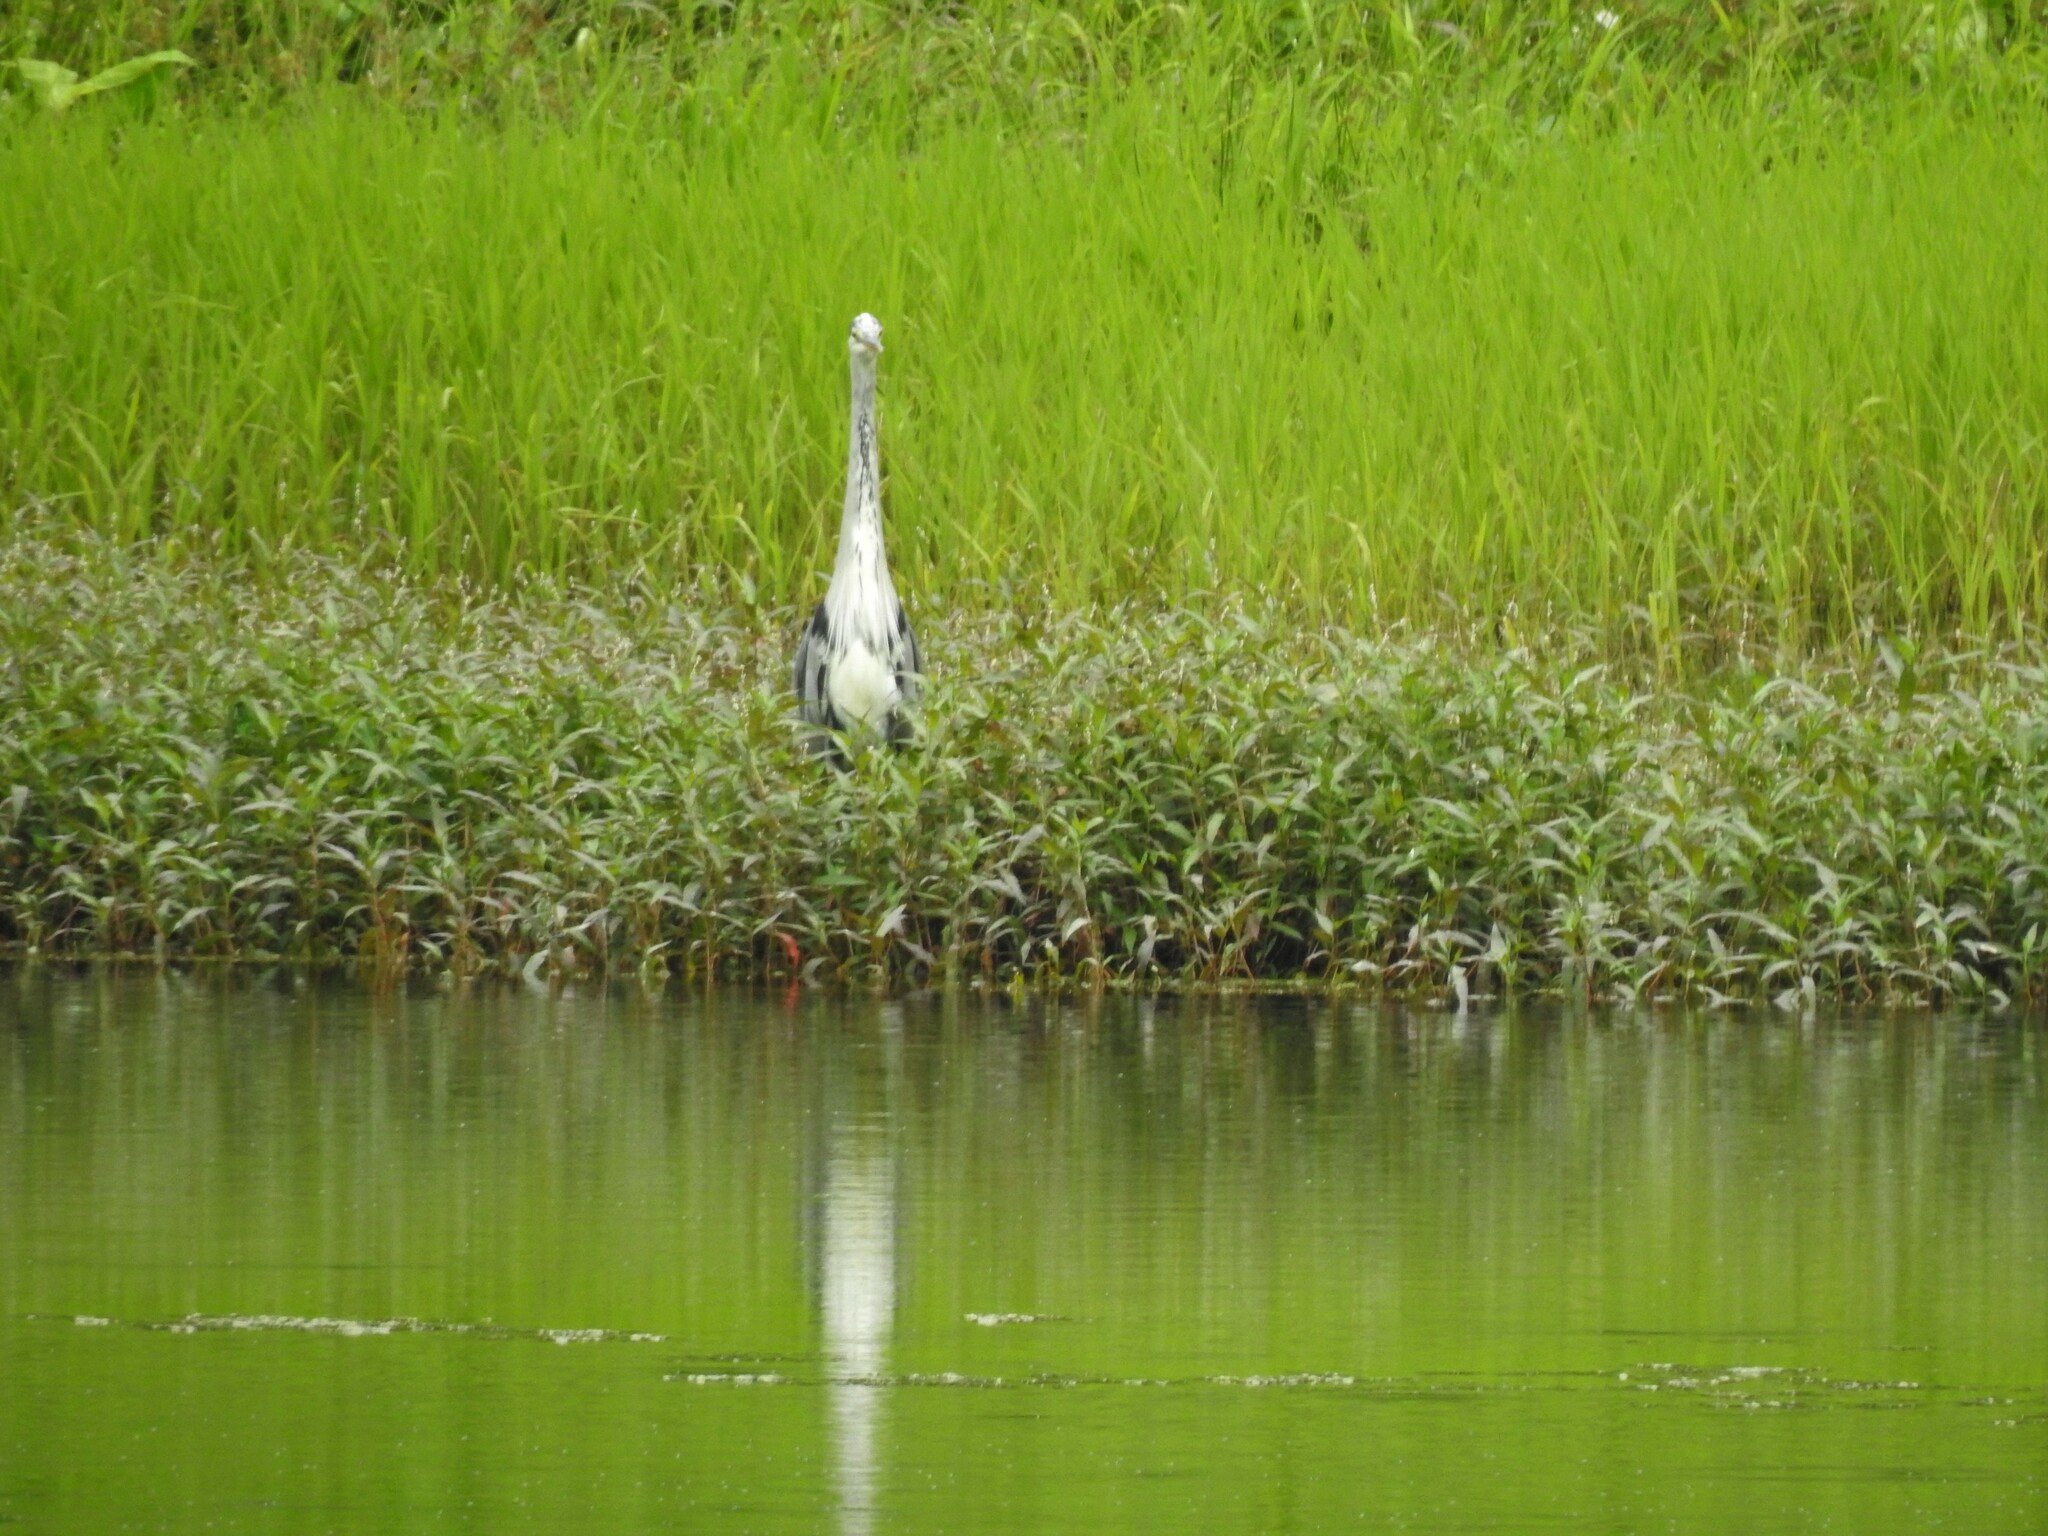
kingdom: Animalia
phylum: Chordata
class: Aves
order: Pelecaniformes
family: Ardeidae
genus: Ardea
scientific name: Ardea cinerea
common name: Grey heron
